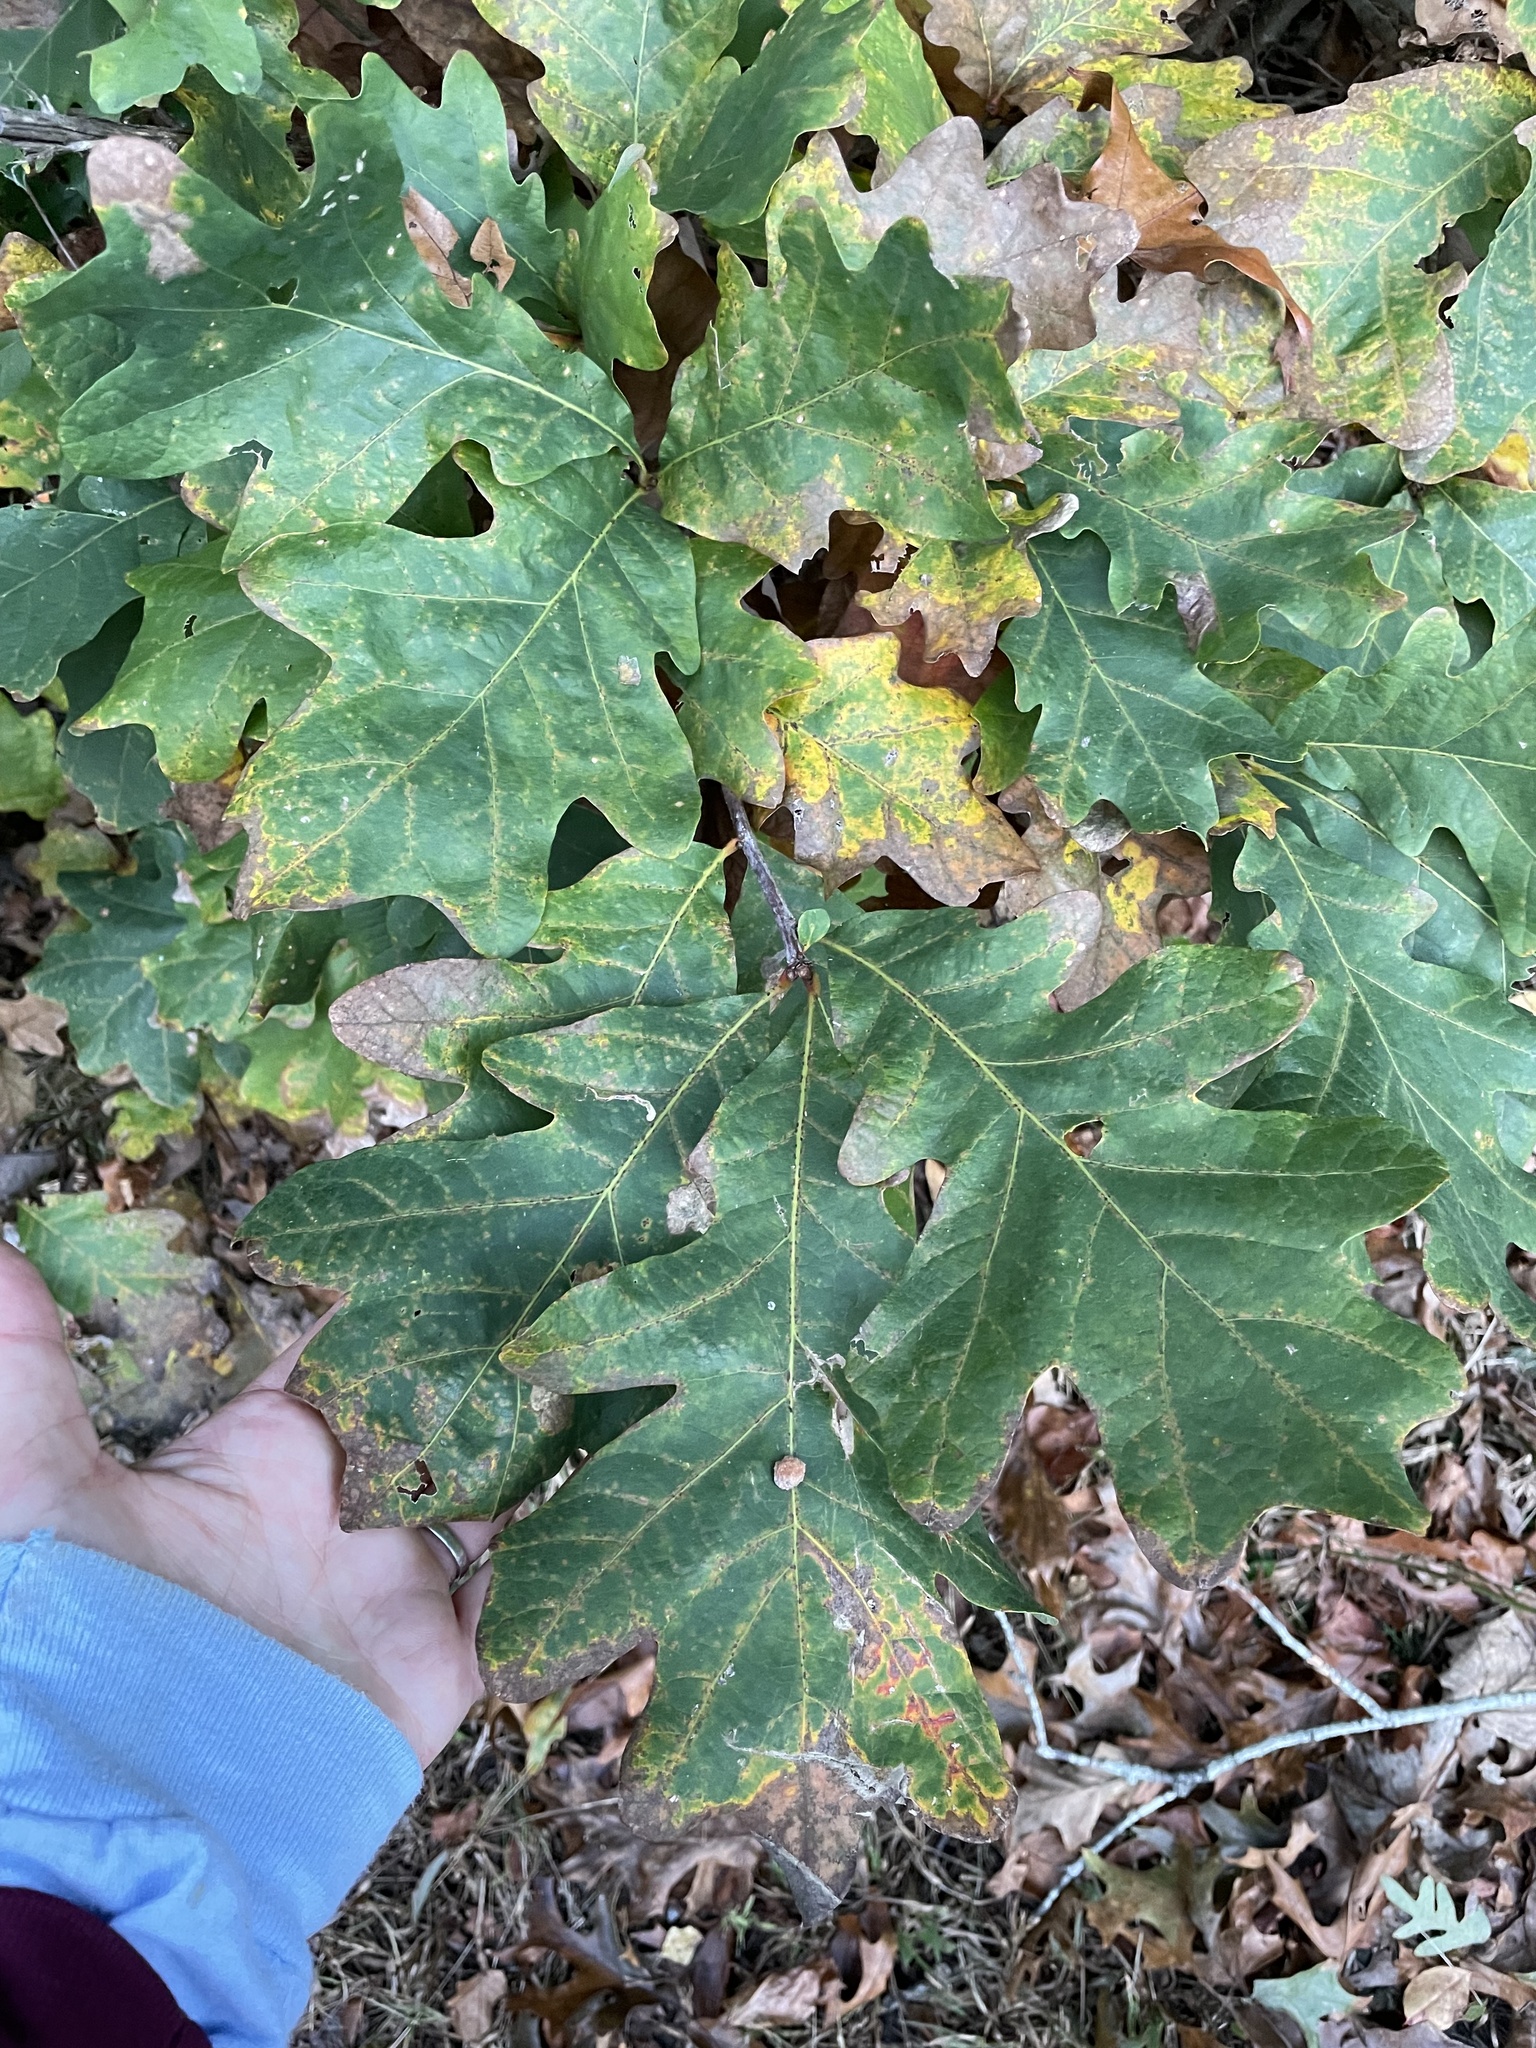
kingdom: Plantae
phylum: Tracheophyta
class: Magnoliopsida
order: Fagales
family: Fagaceae
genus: Quercus
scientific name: Quercus alba
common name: White oak
